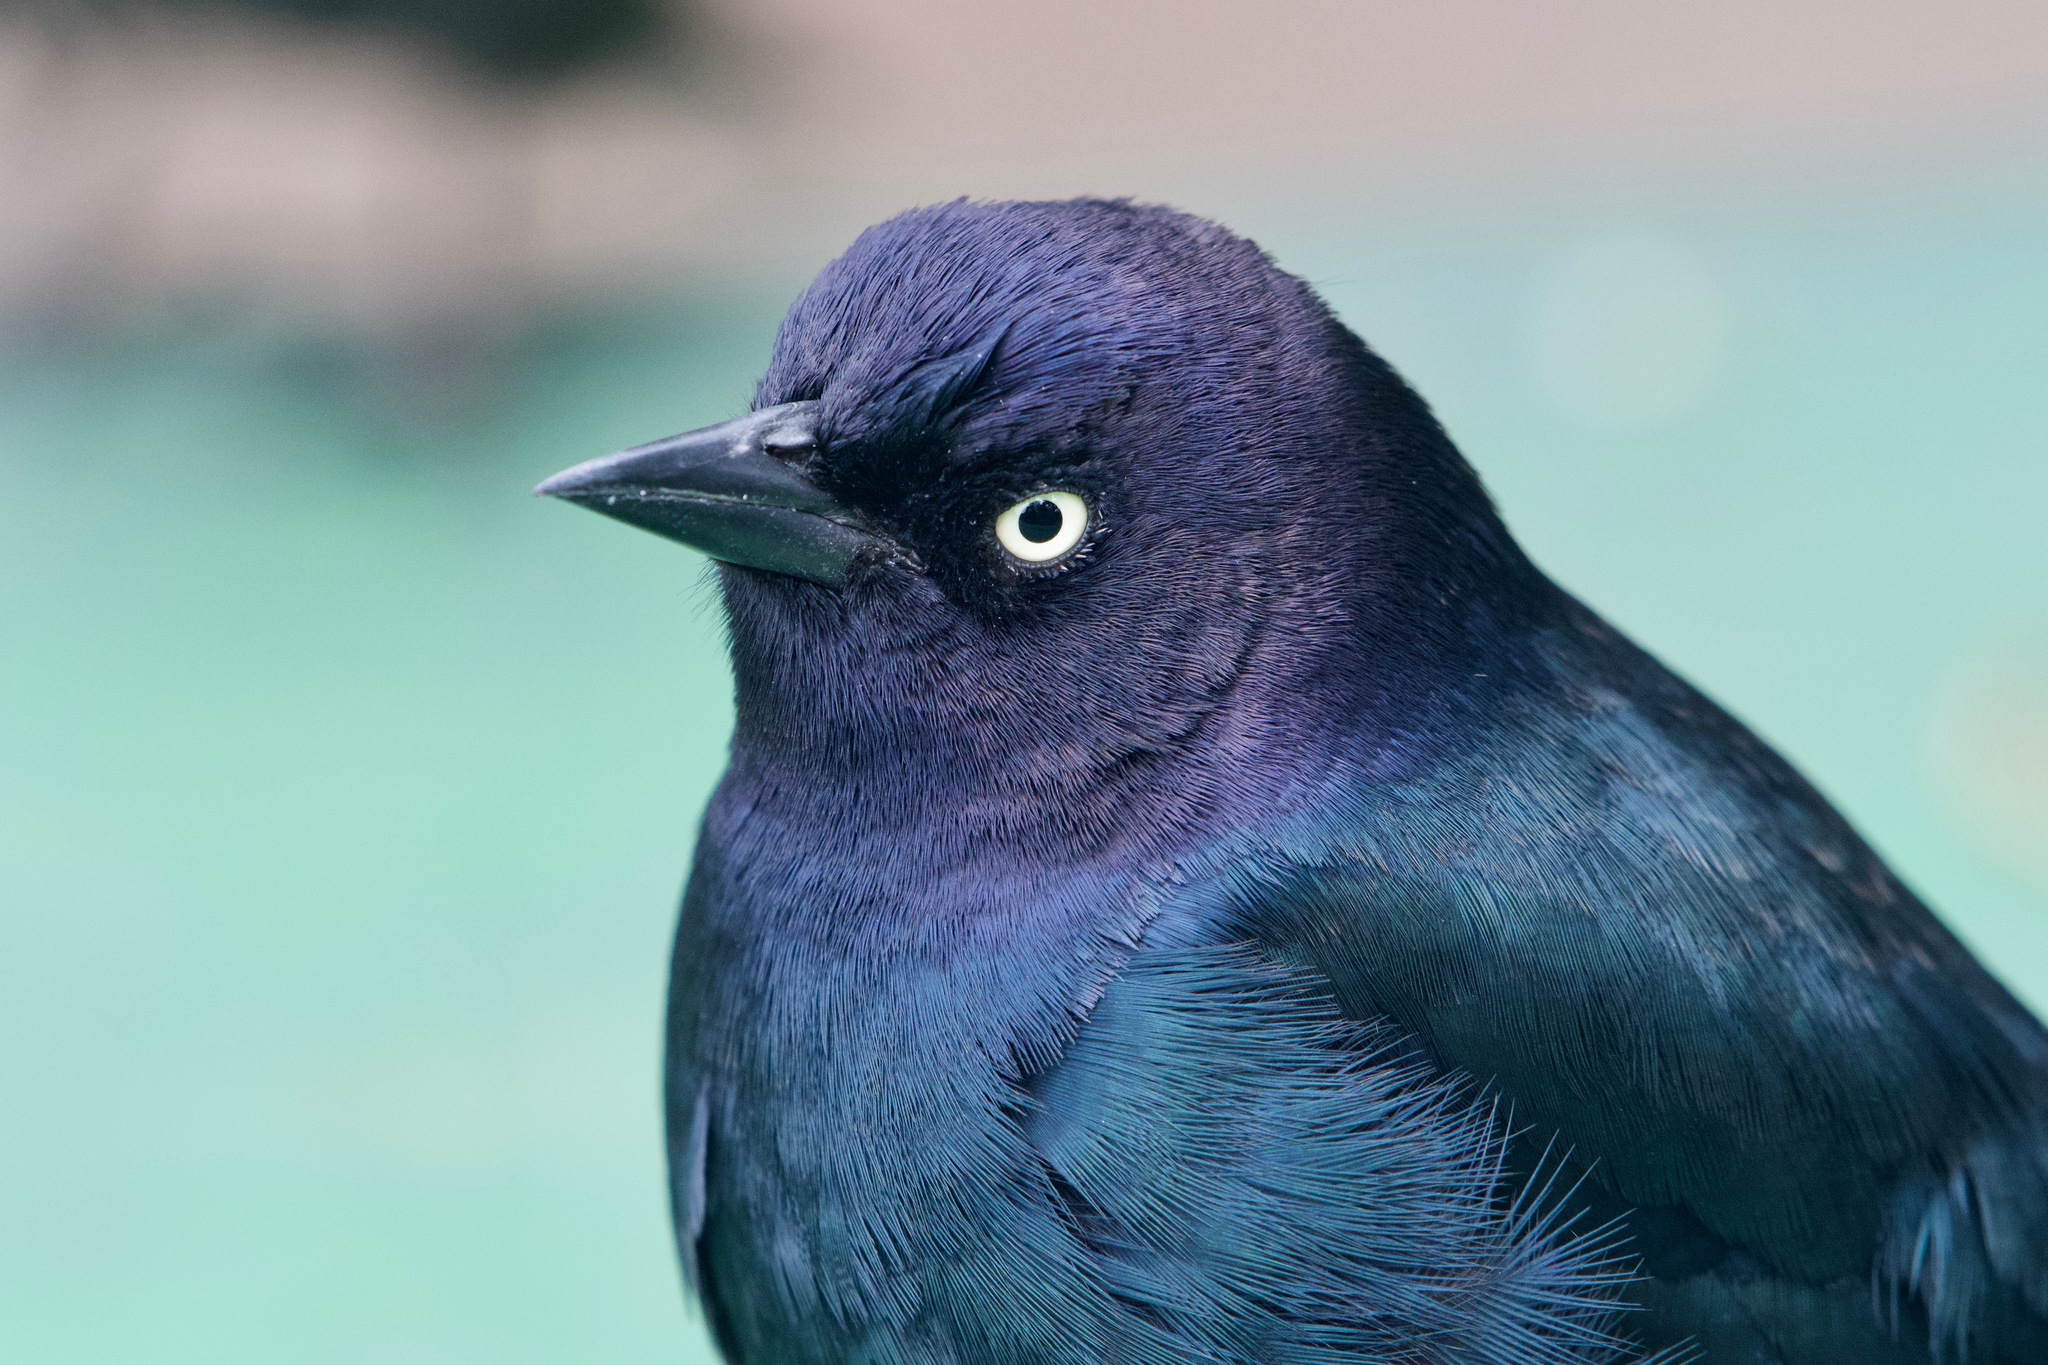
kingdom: Animalia
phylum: Chordata
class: Aves
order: Passeriformes
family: Icteridae
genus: Euphagus
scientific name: Euphagus cyanocephalus
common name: Brewer's blackbird
